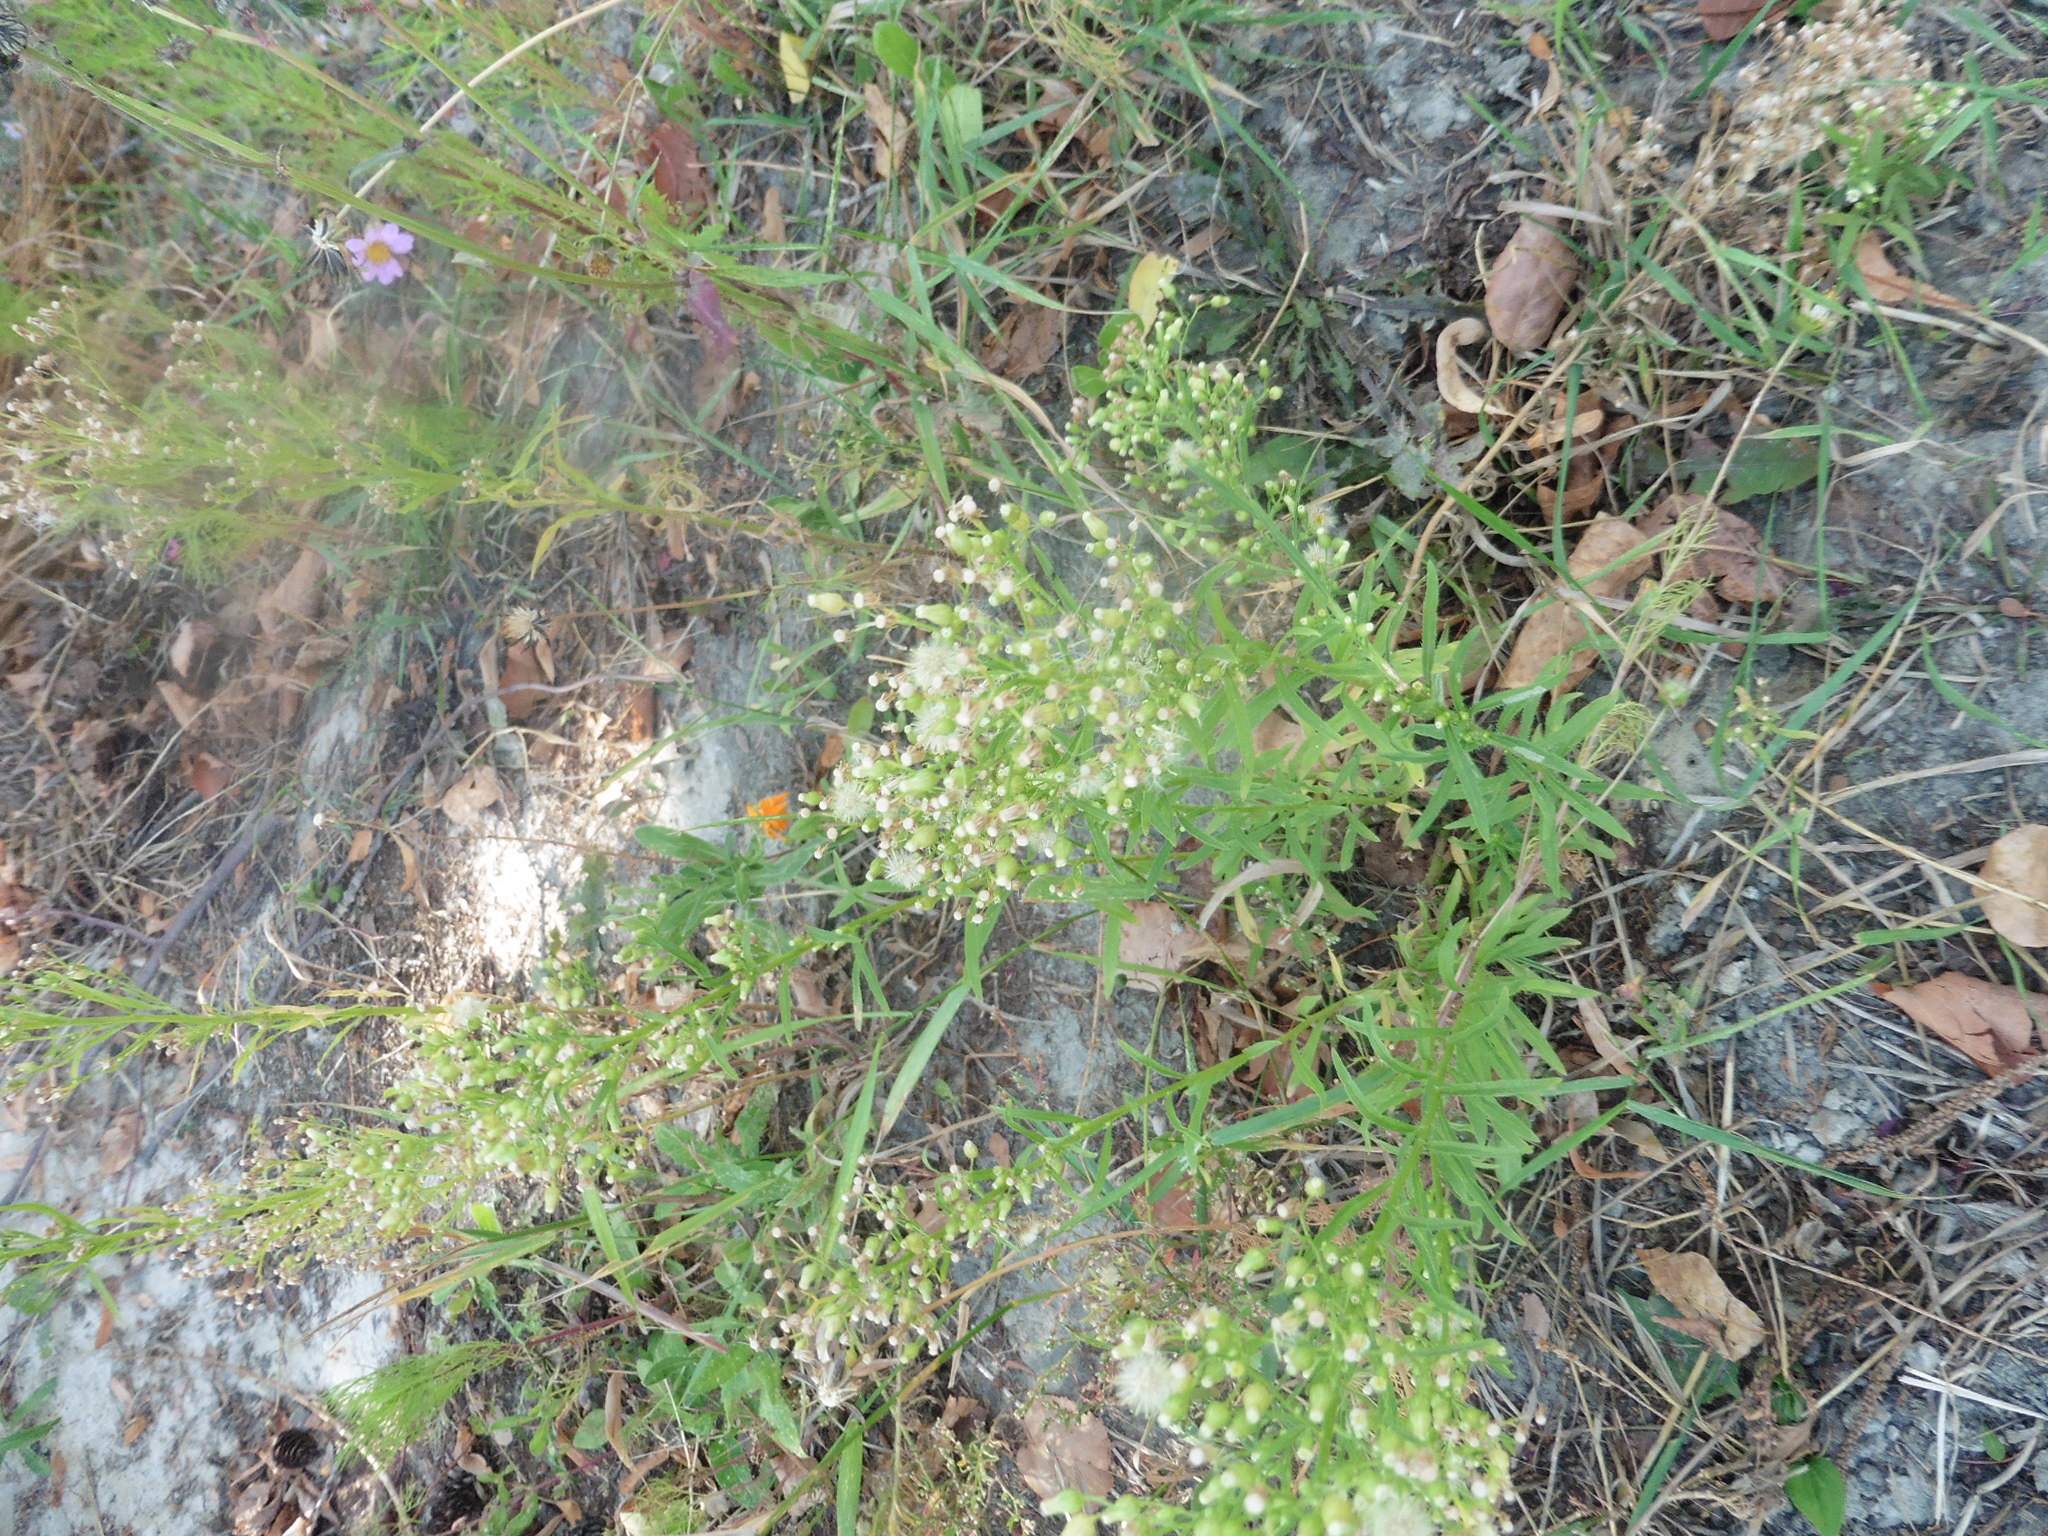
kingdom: Plantae
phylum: Tracheophyta
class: Magnoliopsida
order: Asterales
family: Asteraceae
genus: Erigeron
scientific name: Erigeron canadensis
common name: Canadian fleabane
